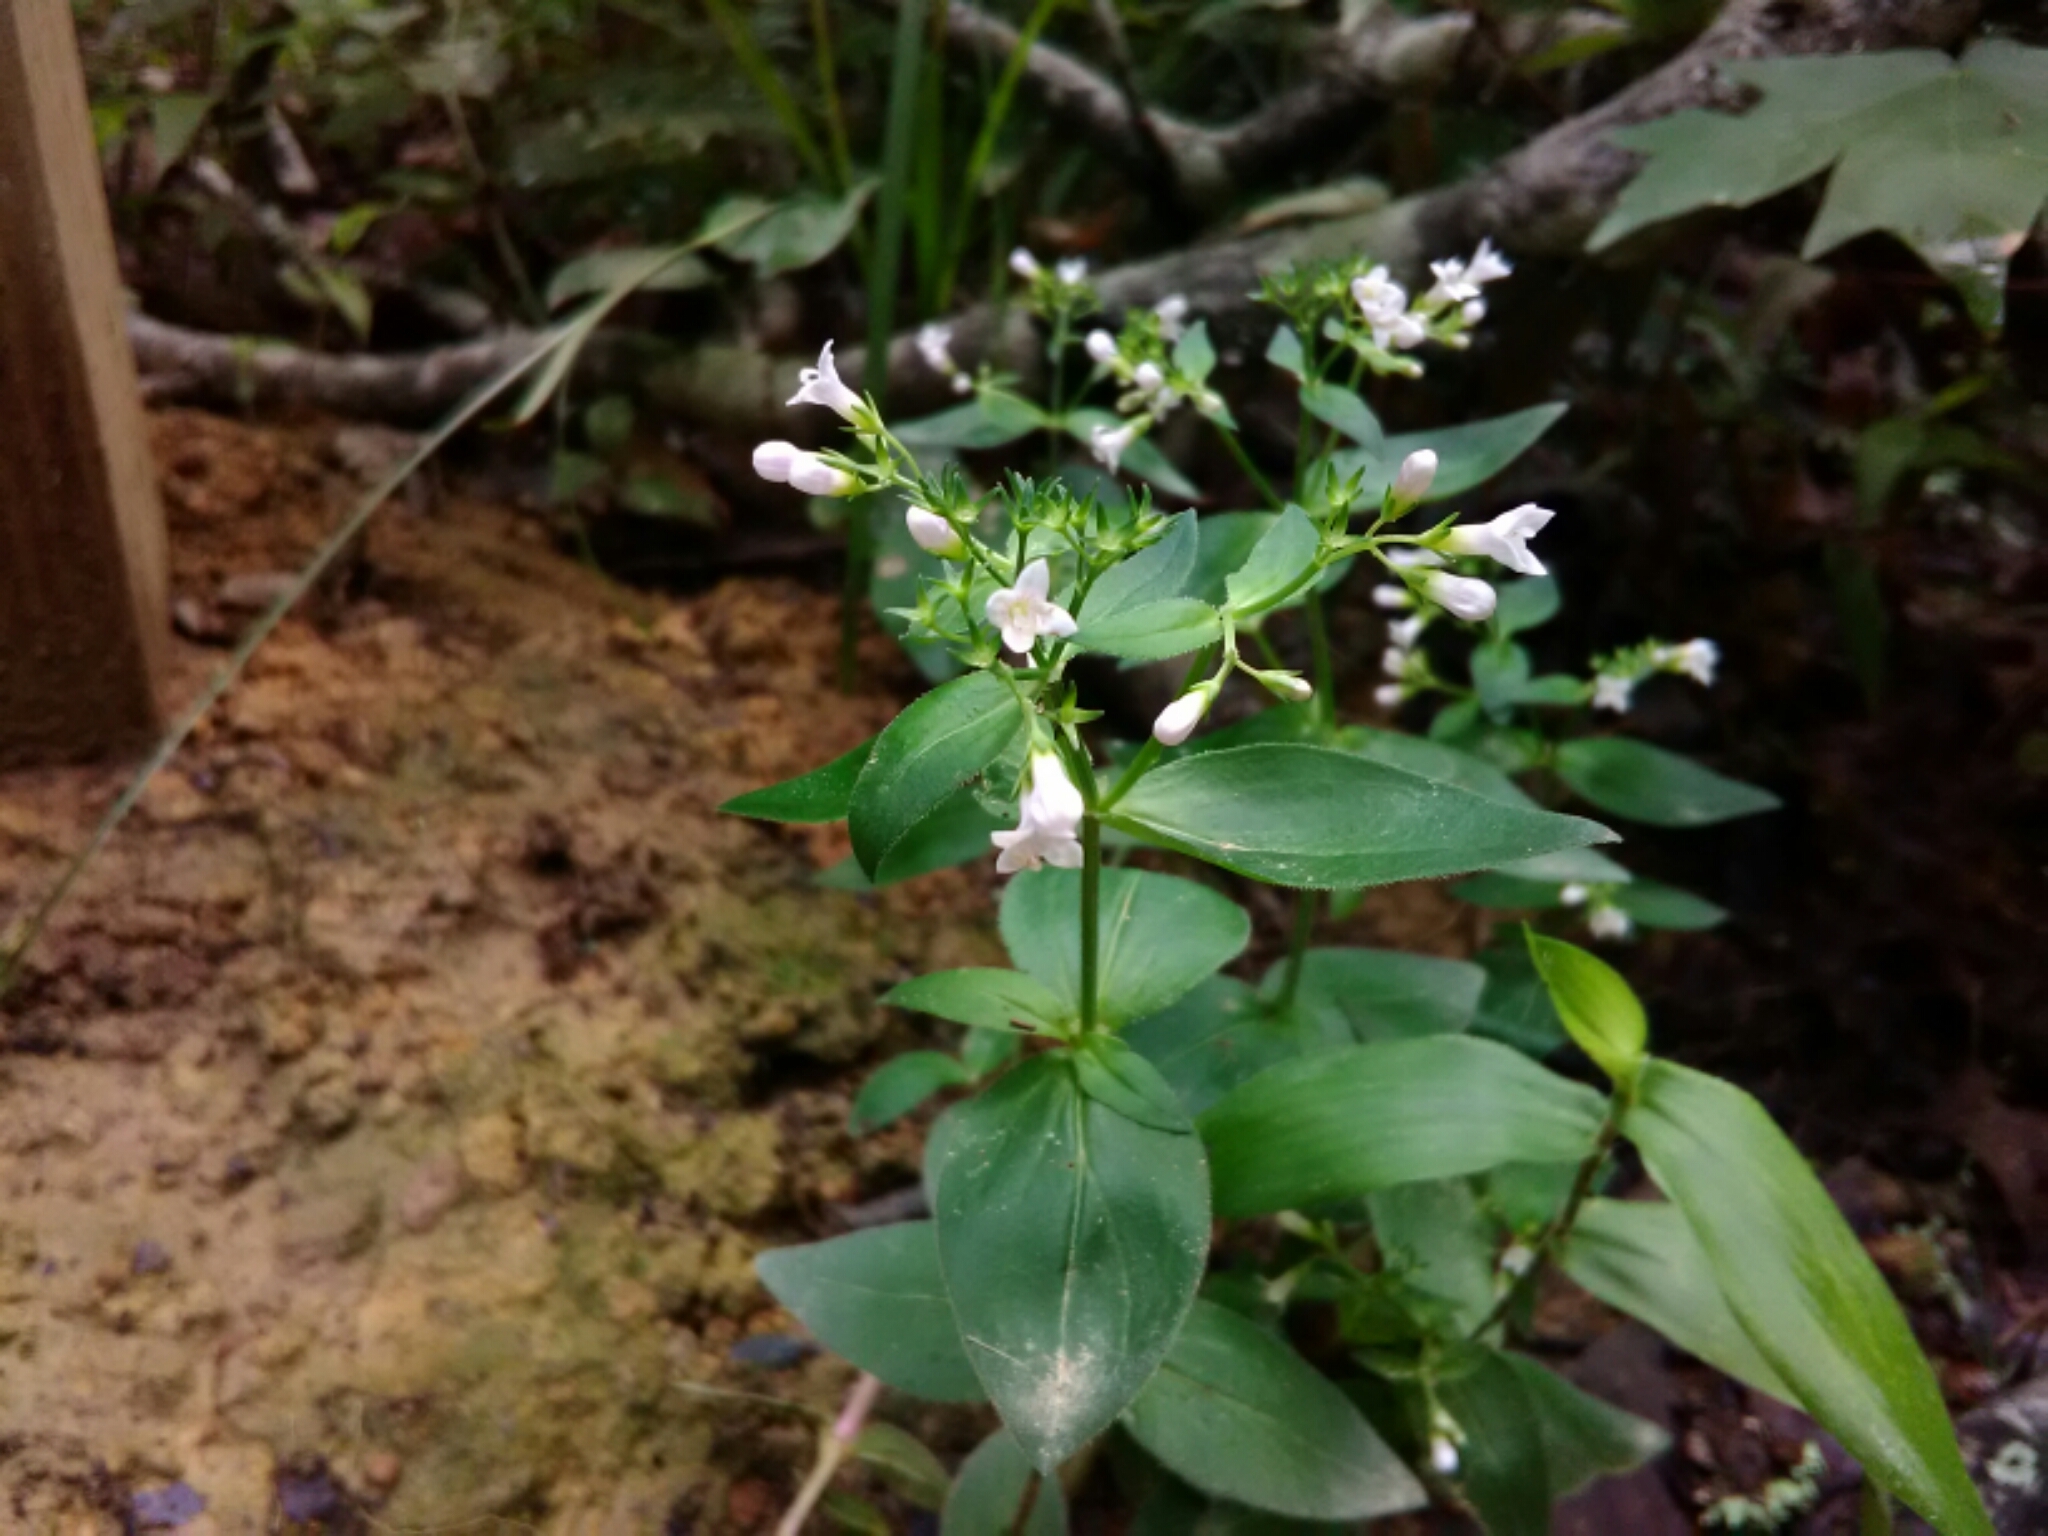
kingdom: Plantae
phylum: Tracheophyta
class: Magnoliopsida
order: Gentianales
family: Rubiaceae
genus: Houstonia
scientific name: Houstonia purpurea
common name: Summer bluet
